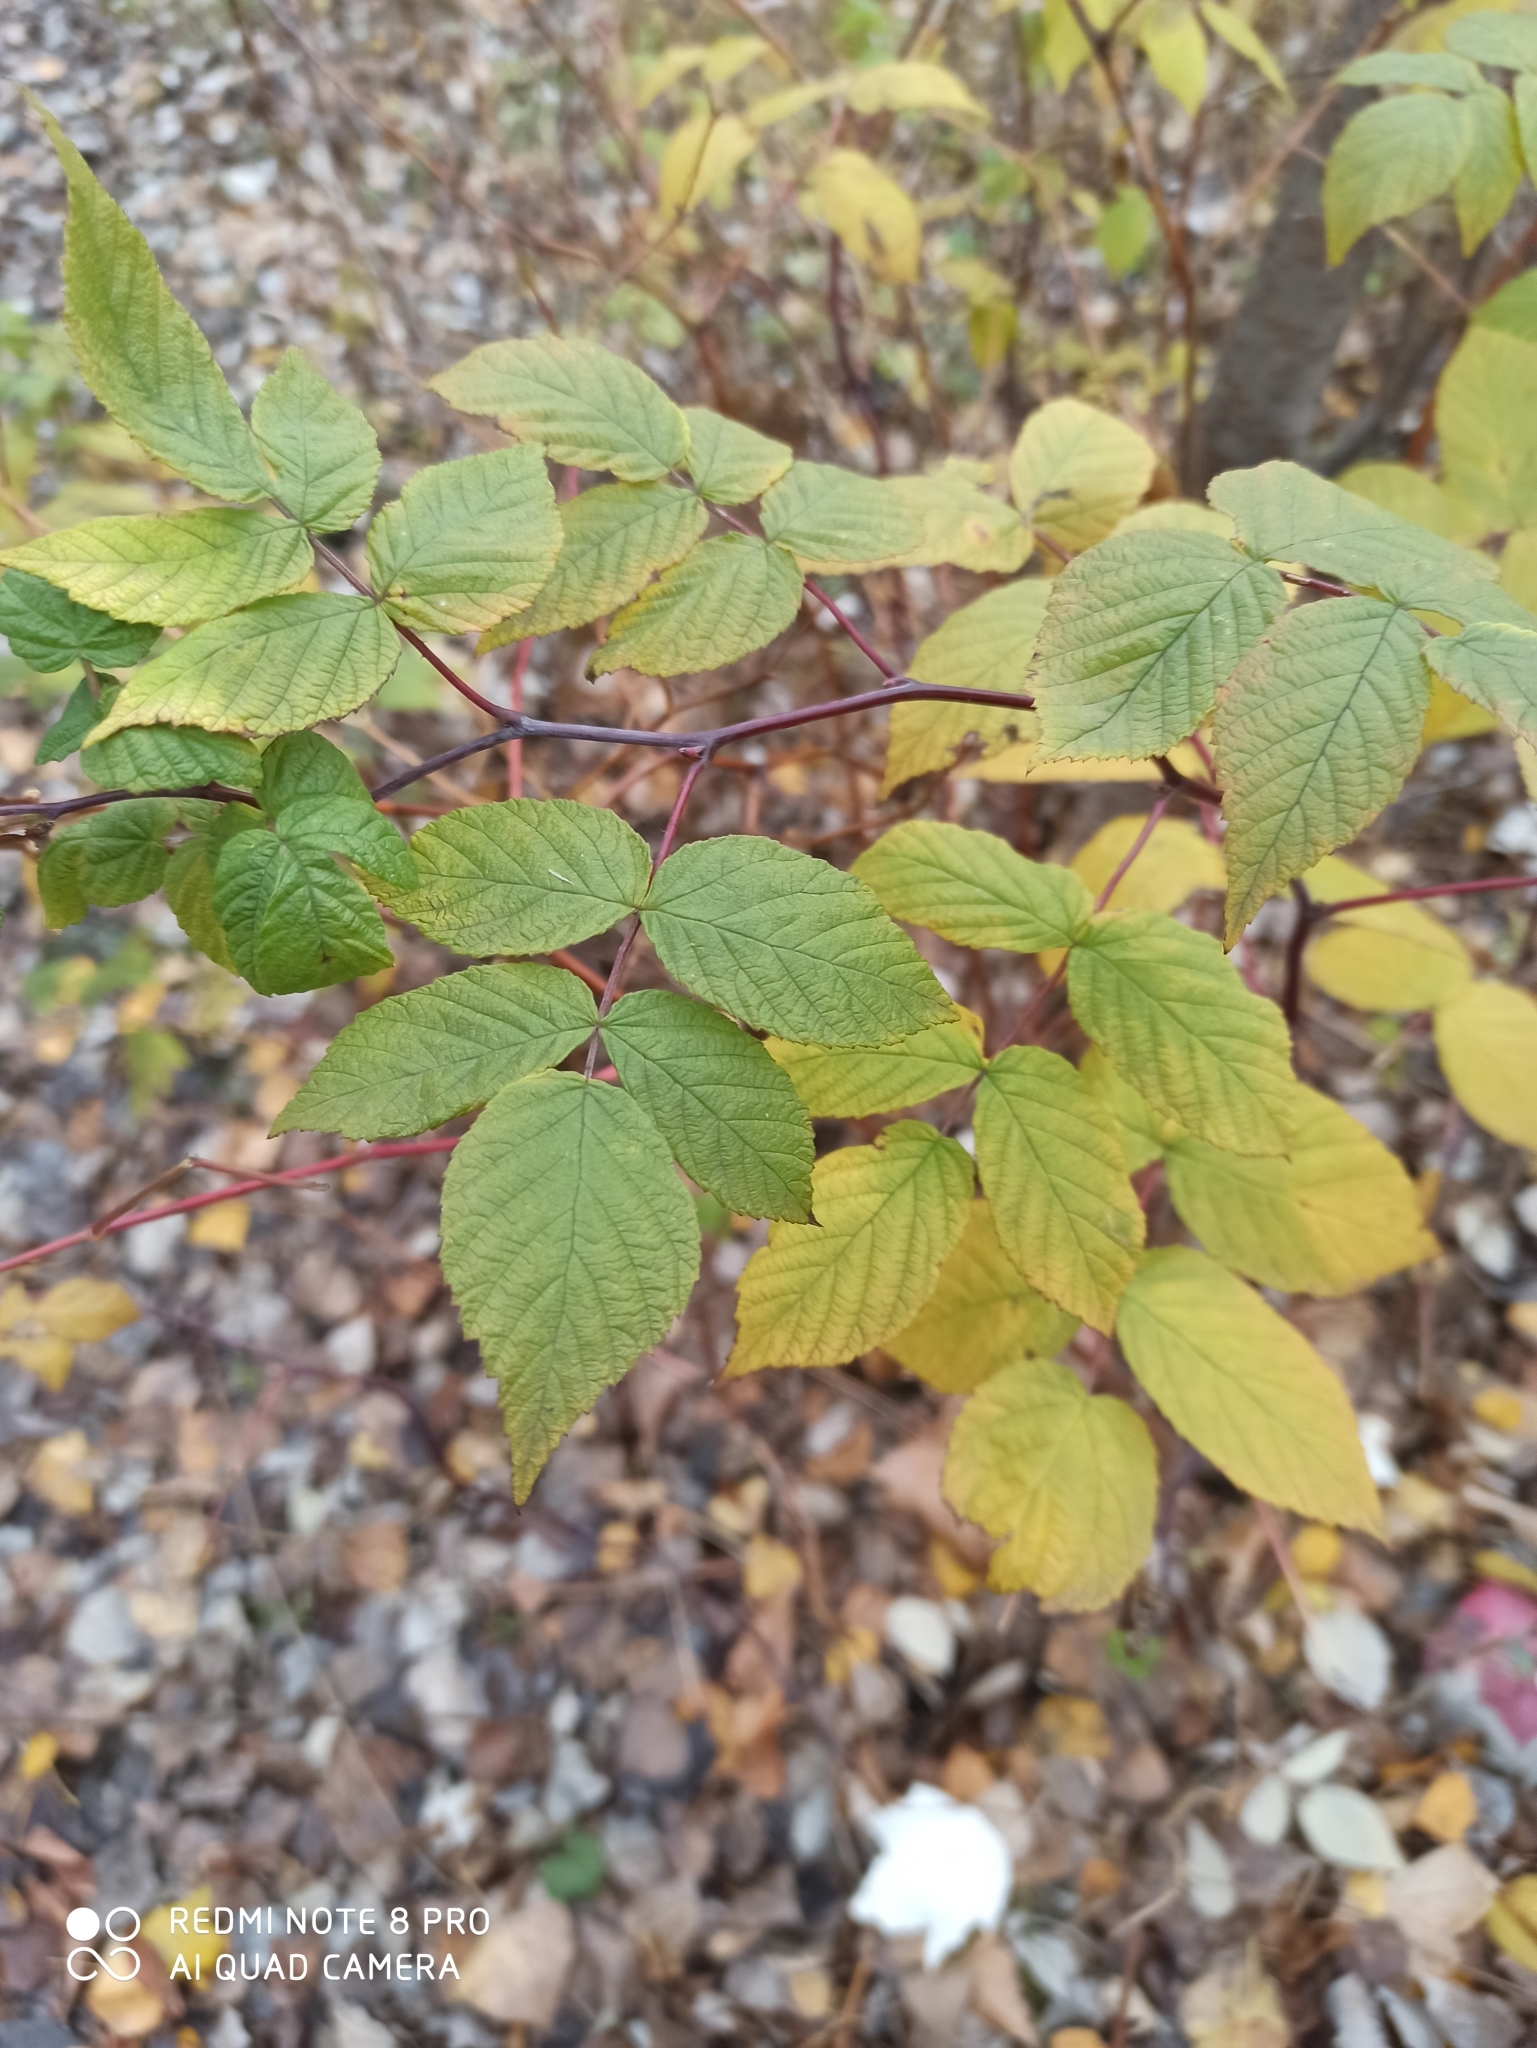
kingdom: Plantae
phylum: Tracheophyta
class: Magnoliopsida
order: Rosales
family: Rosaceae
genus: Rubus
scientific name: Rubus idaeus
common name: Raspberry
